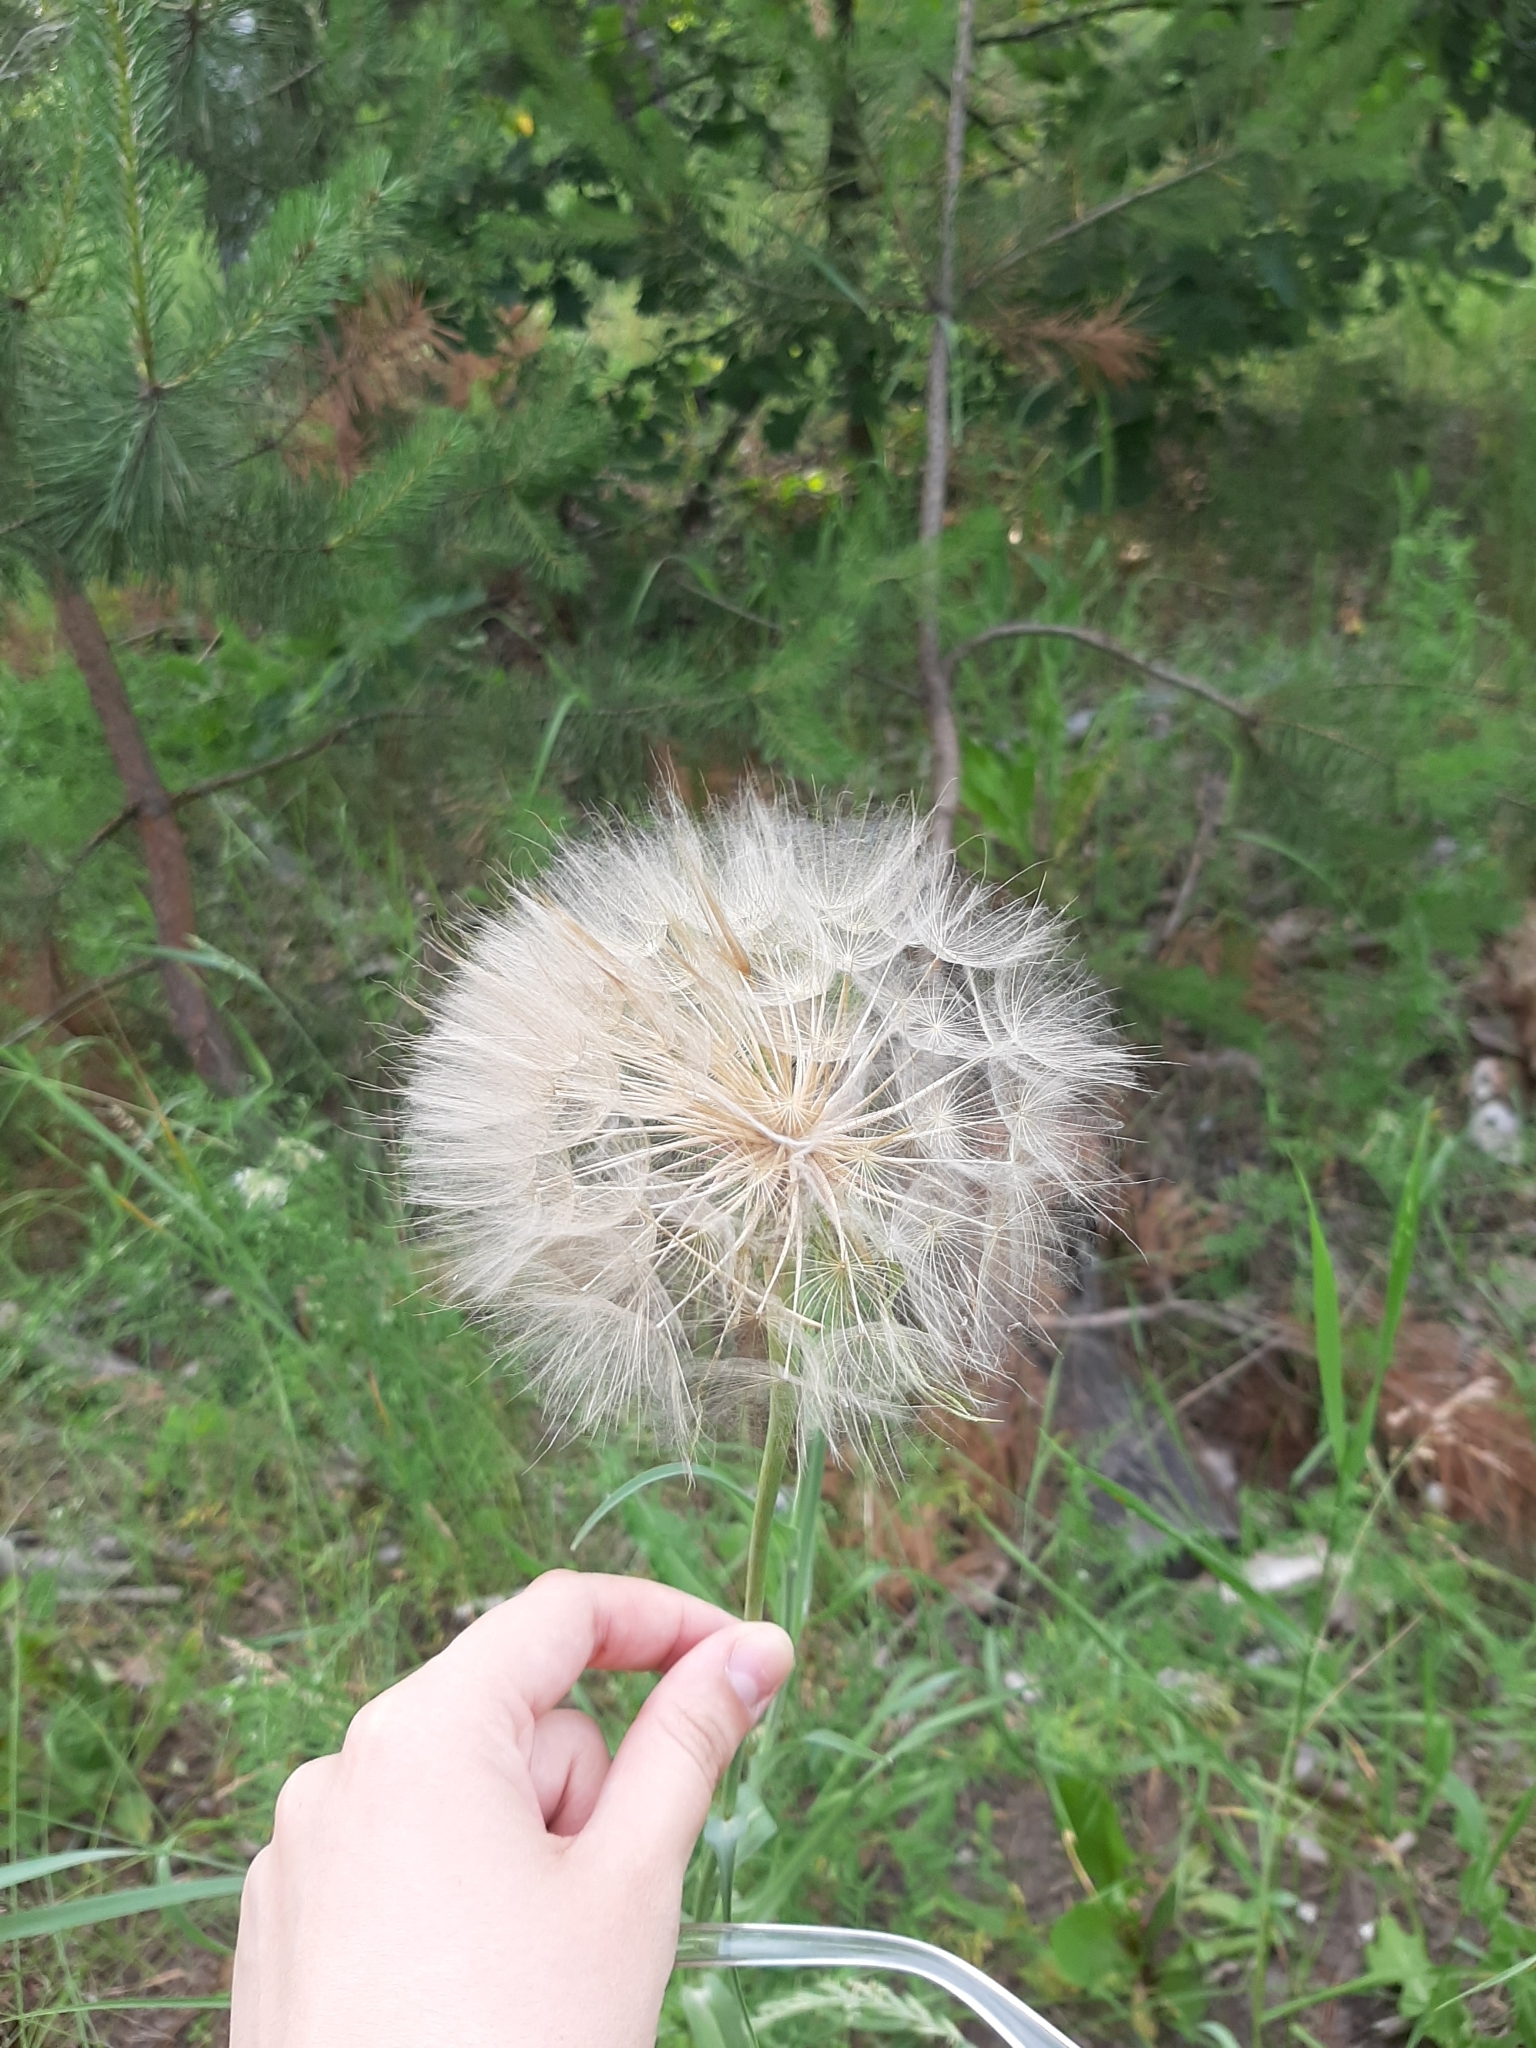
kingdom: Plantae
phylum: Tracheophyta
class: Magnoliopsida
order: Asterales
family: Asteraceae
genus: Tragopogon
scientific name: Tragopogon dubius
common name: Yellow salsify
